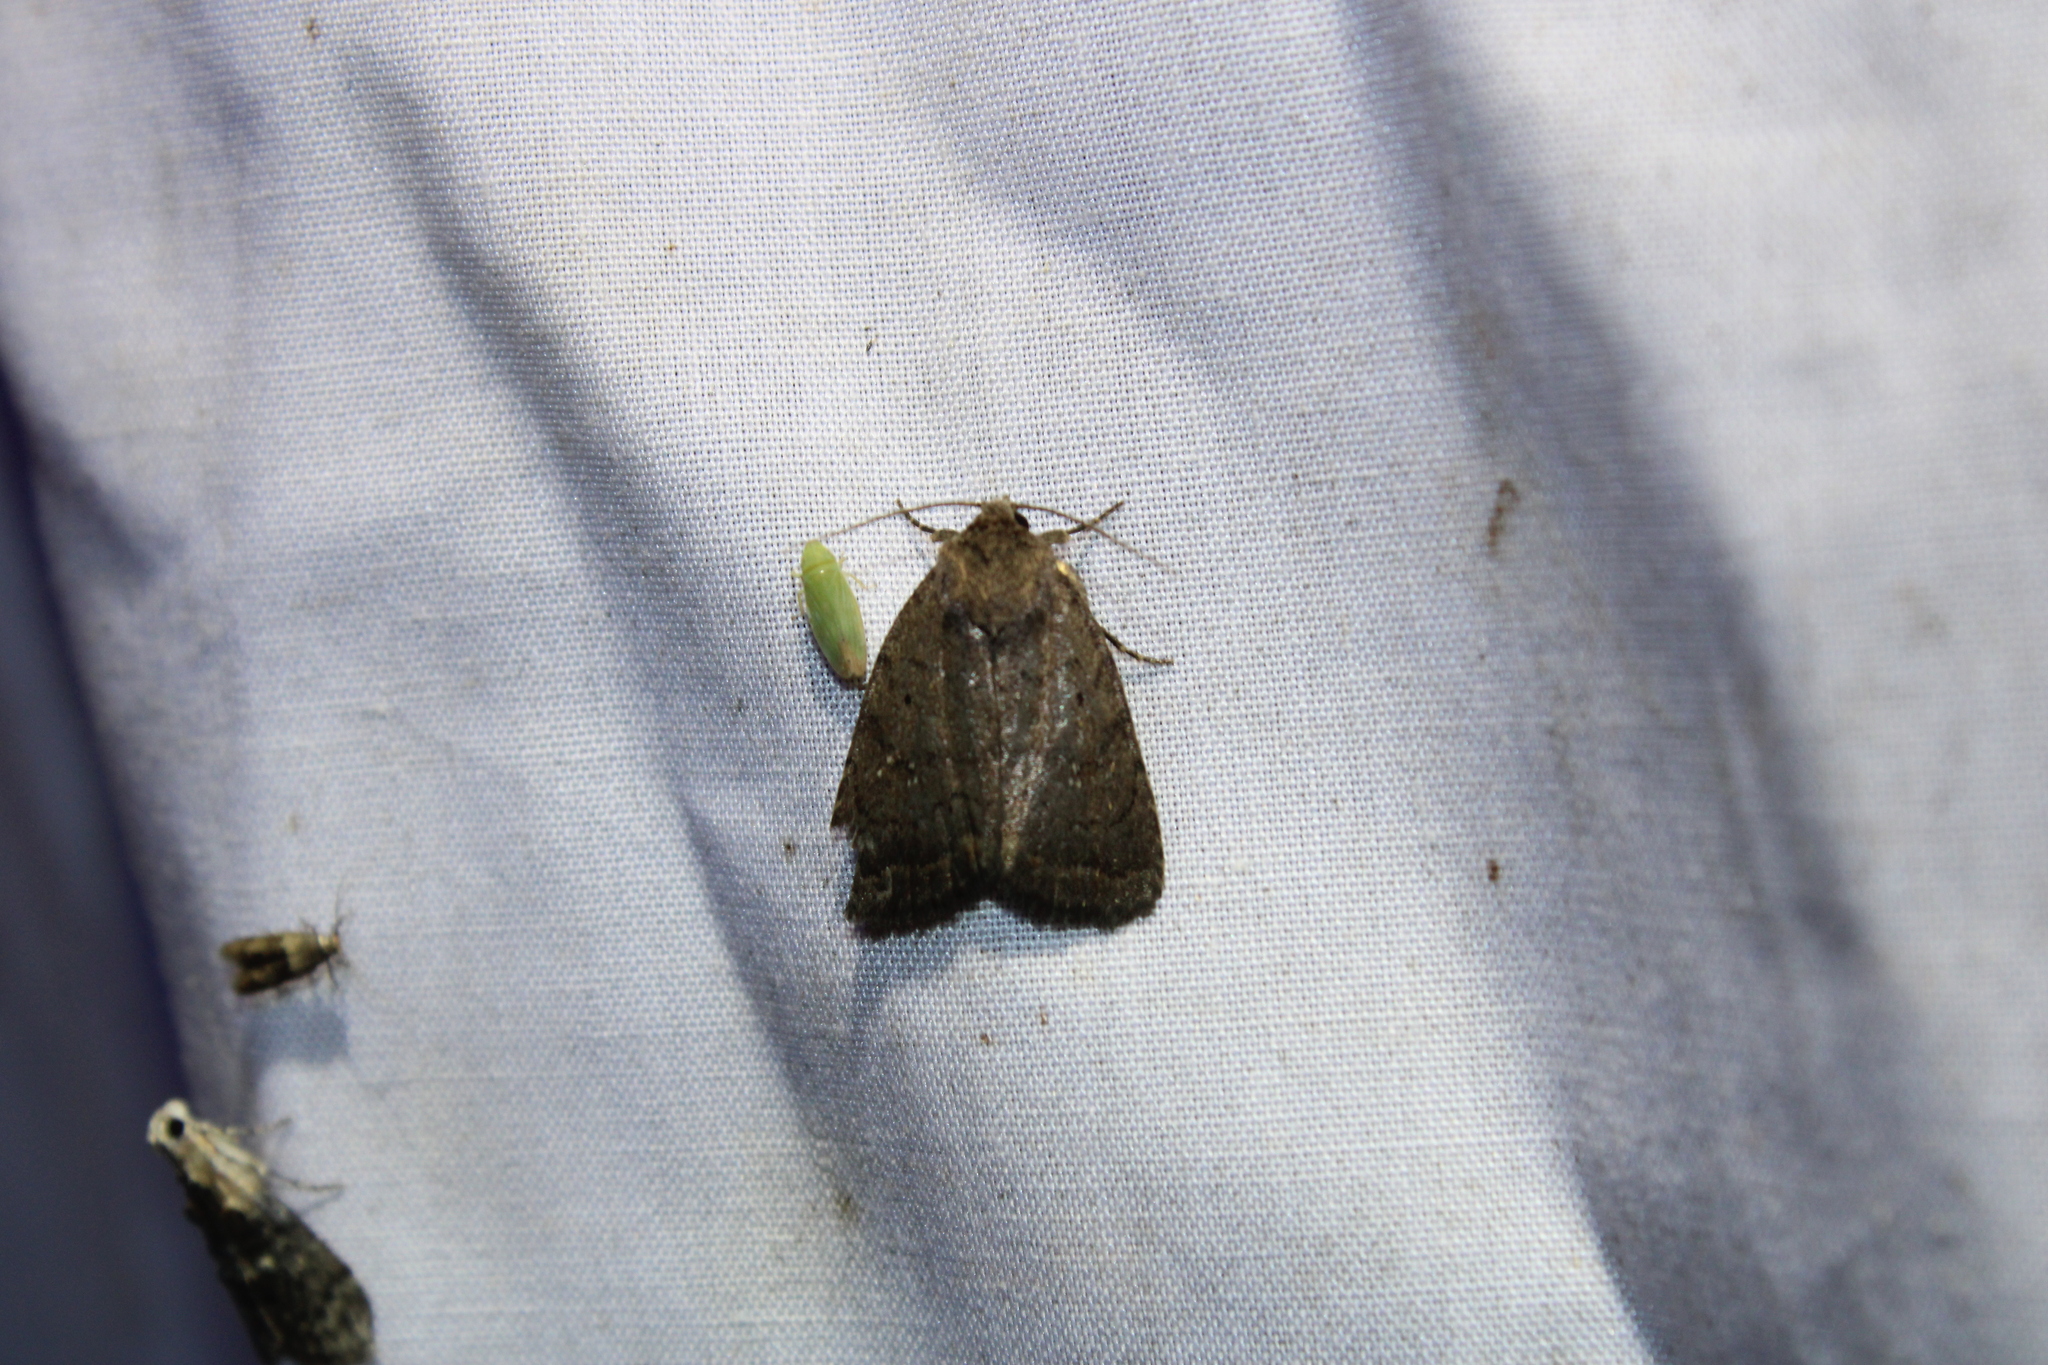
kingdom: Animalia
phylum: Arthropoda
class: Insecta
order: Lepidoptera
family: Noctuidae
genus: Athetis
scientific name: Athetis tarda
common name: Slowpoke moth
